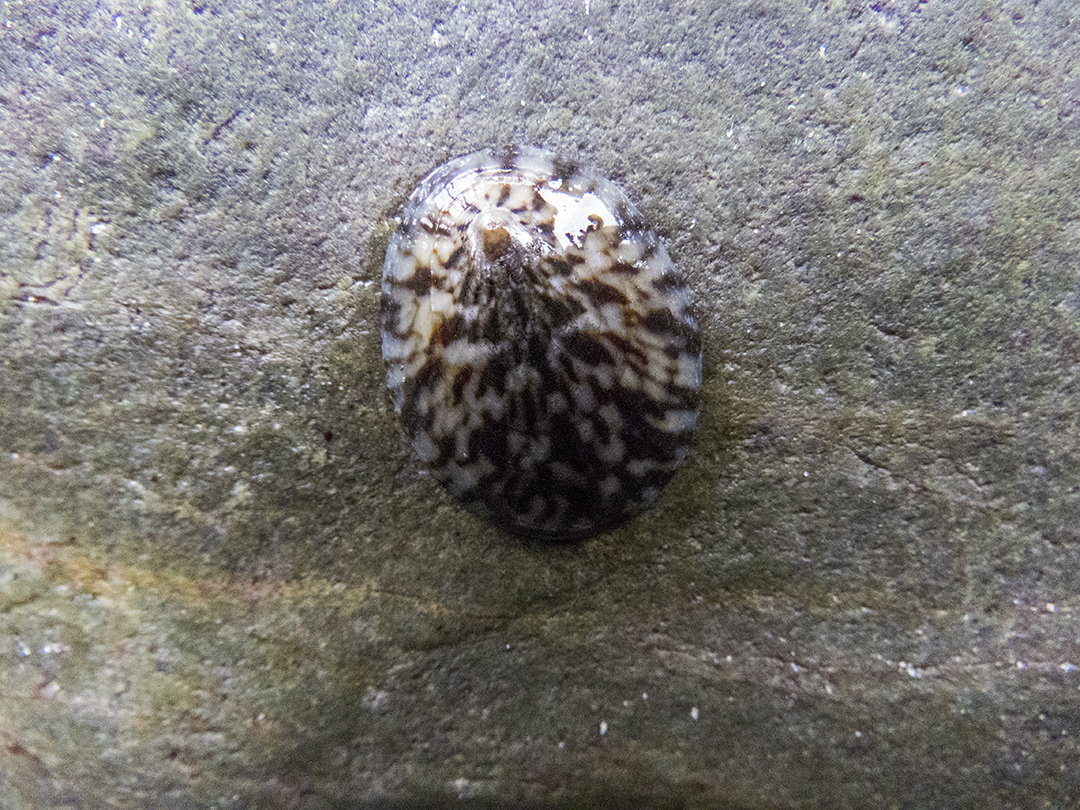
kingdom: Animalia
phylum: Mollusca
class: Gastropoda
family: Nacellidae
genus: Cellana
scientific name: Cellana radians
